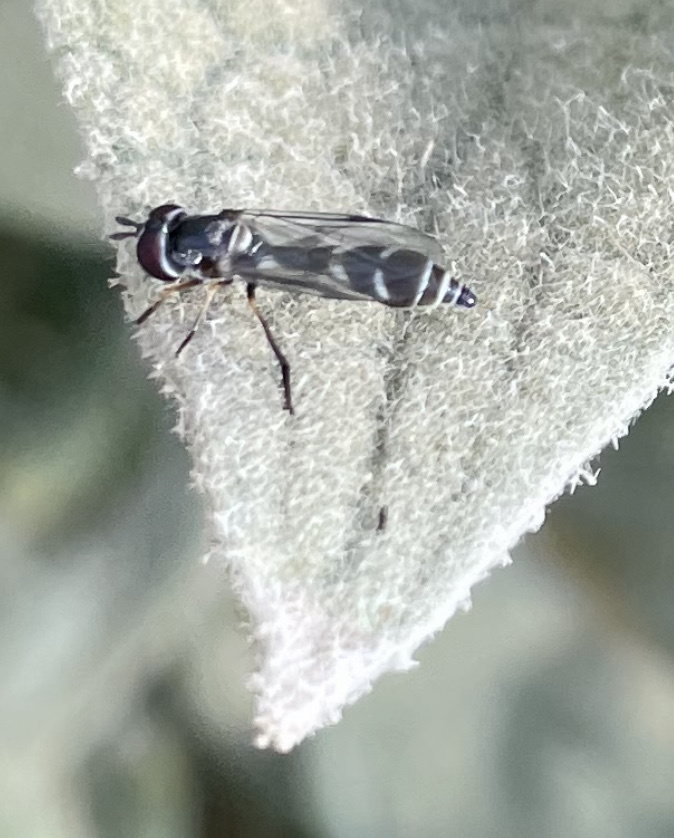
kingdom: Animalia
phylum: Arthropoda
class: Insecta
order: Diptera
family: Syrphidae
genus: Dioprosopa
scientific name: Dioprosopa clavatus
